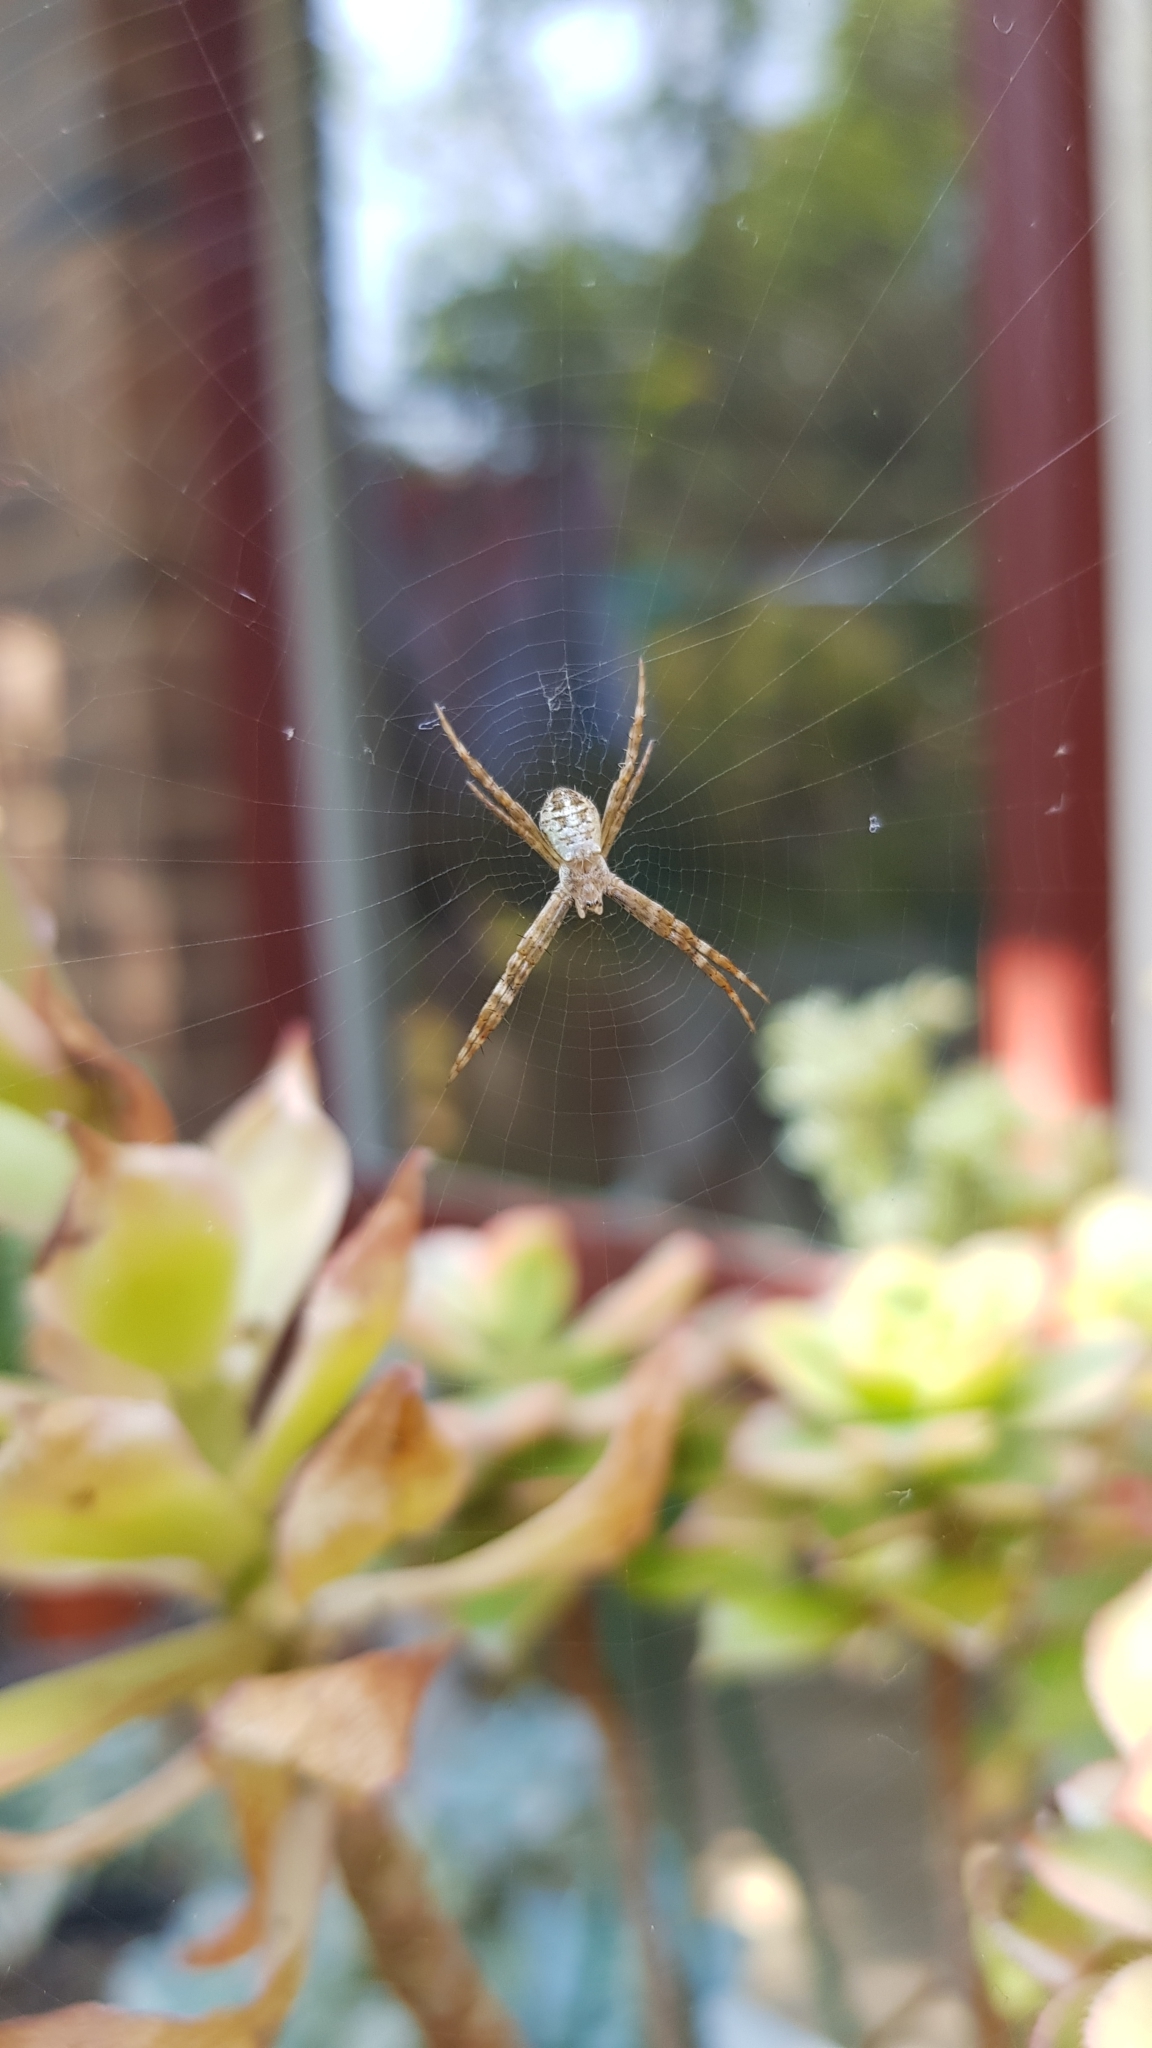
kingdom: Animalia
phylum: Arthropoda
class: Arachnida
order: Araneae
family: Araneidae
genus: Argiope
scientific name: Argiope keyserlingi
